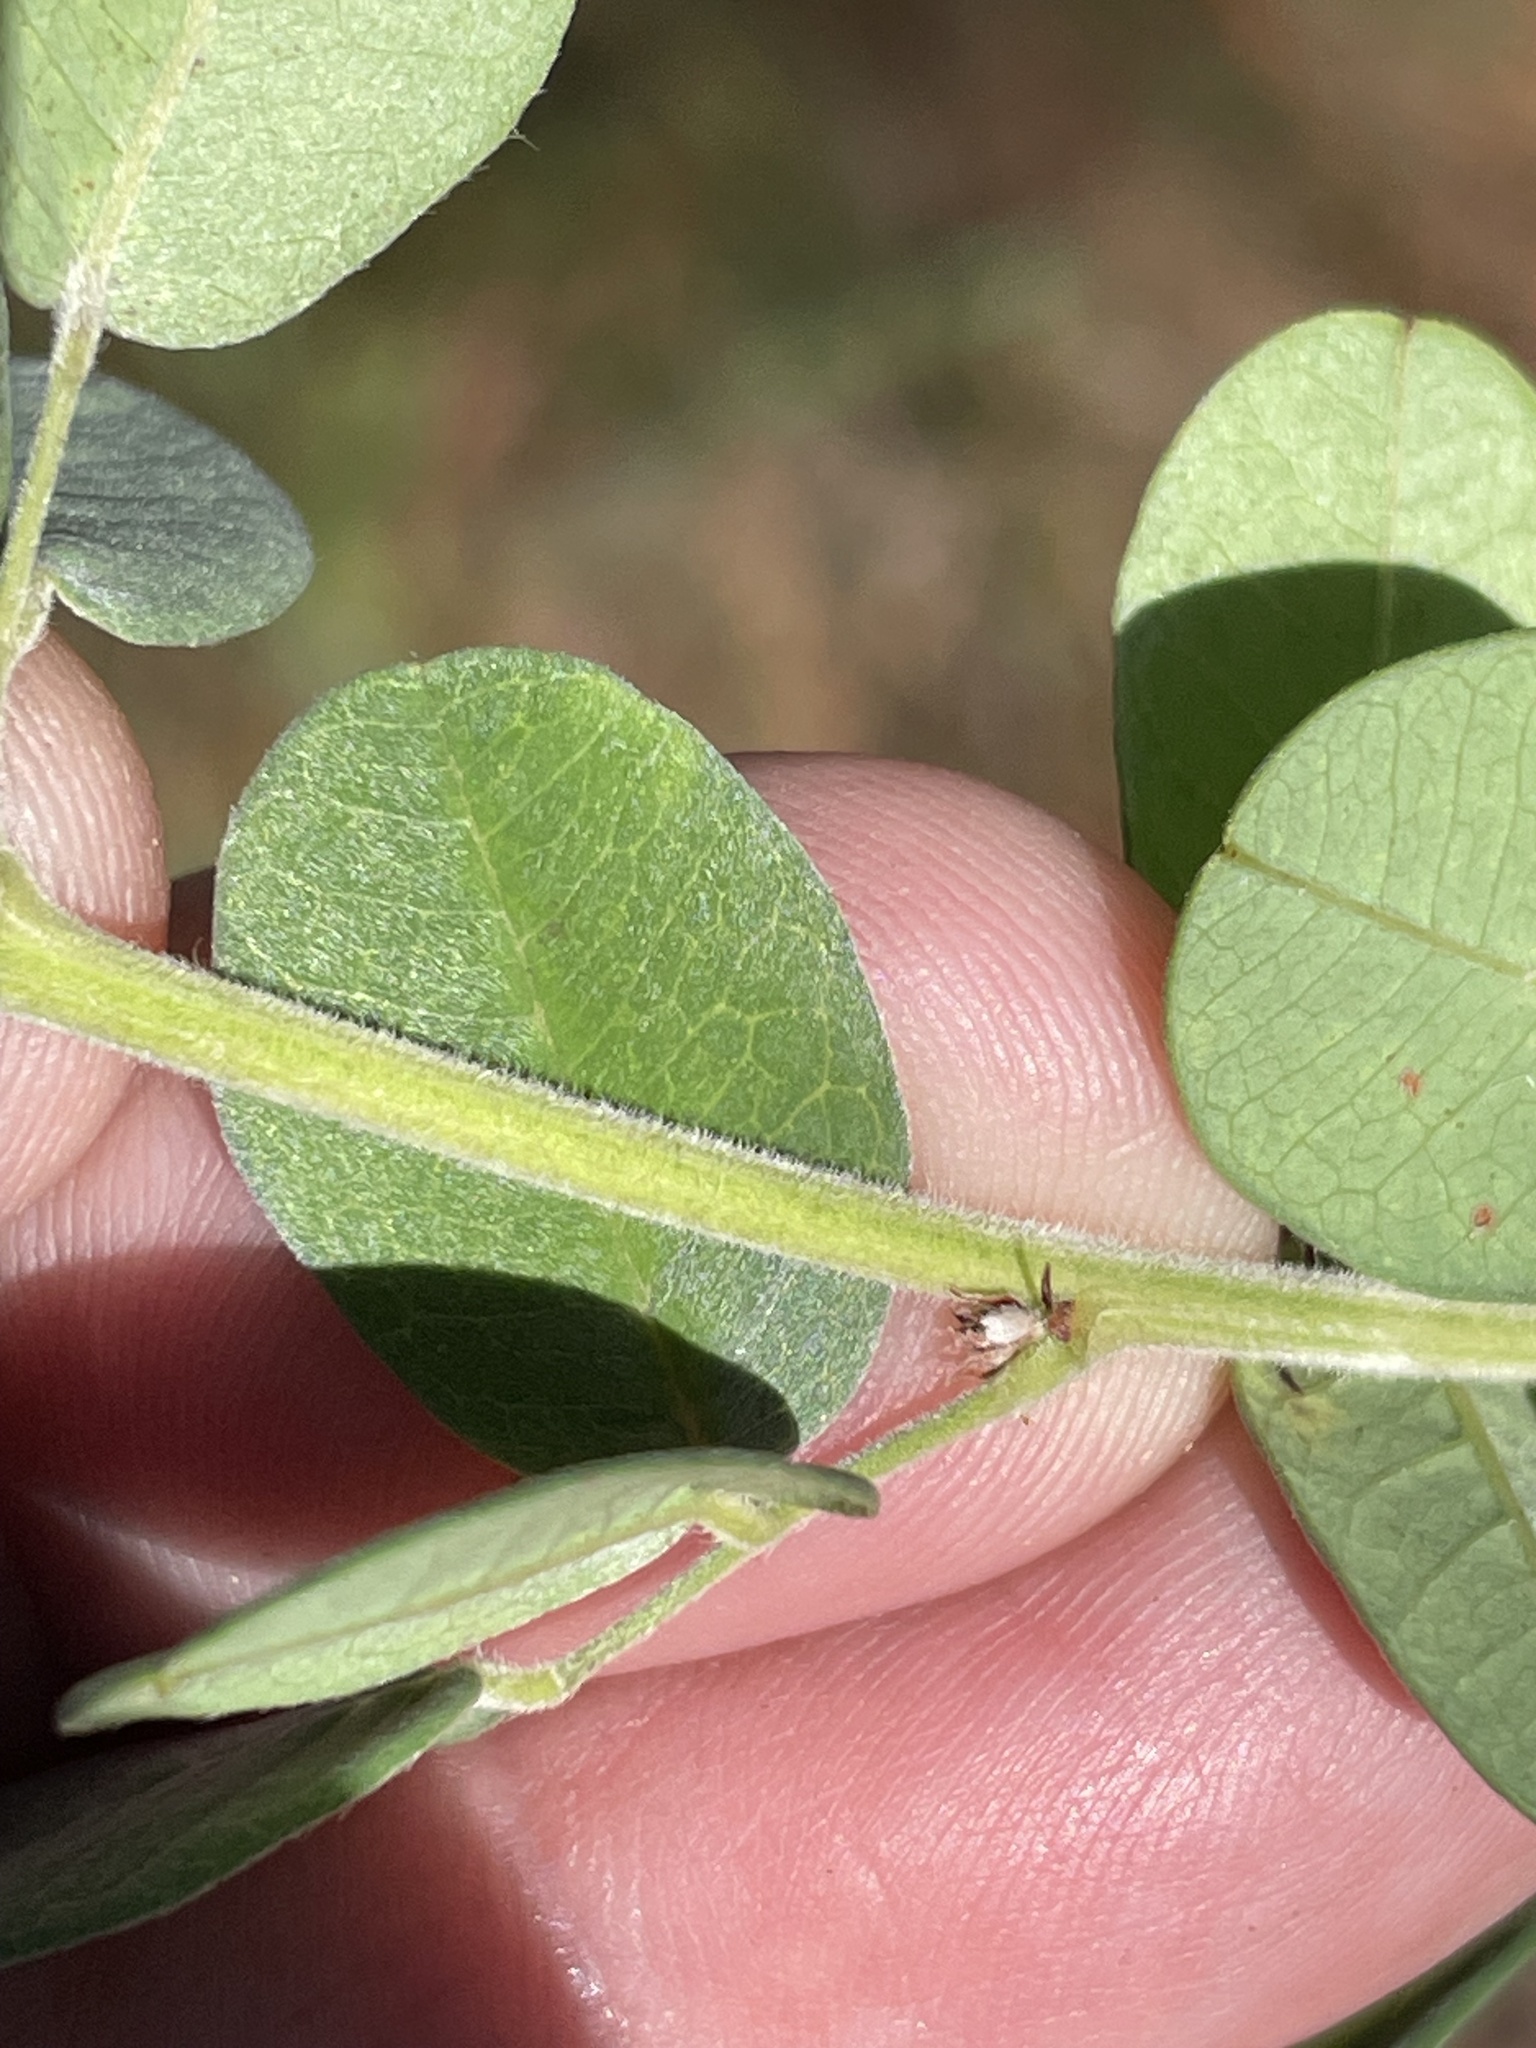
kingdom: Plantae
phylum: Tracheophyta
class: Magnoliopsida
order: Fabales
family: Fabaceae
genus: Lespedeza
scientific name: Lespedeza hirta
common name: Hairy lespedeza
